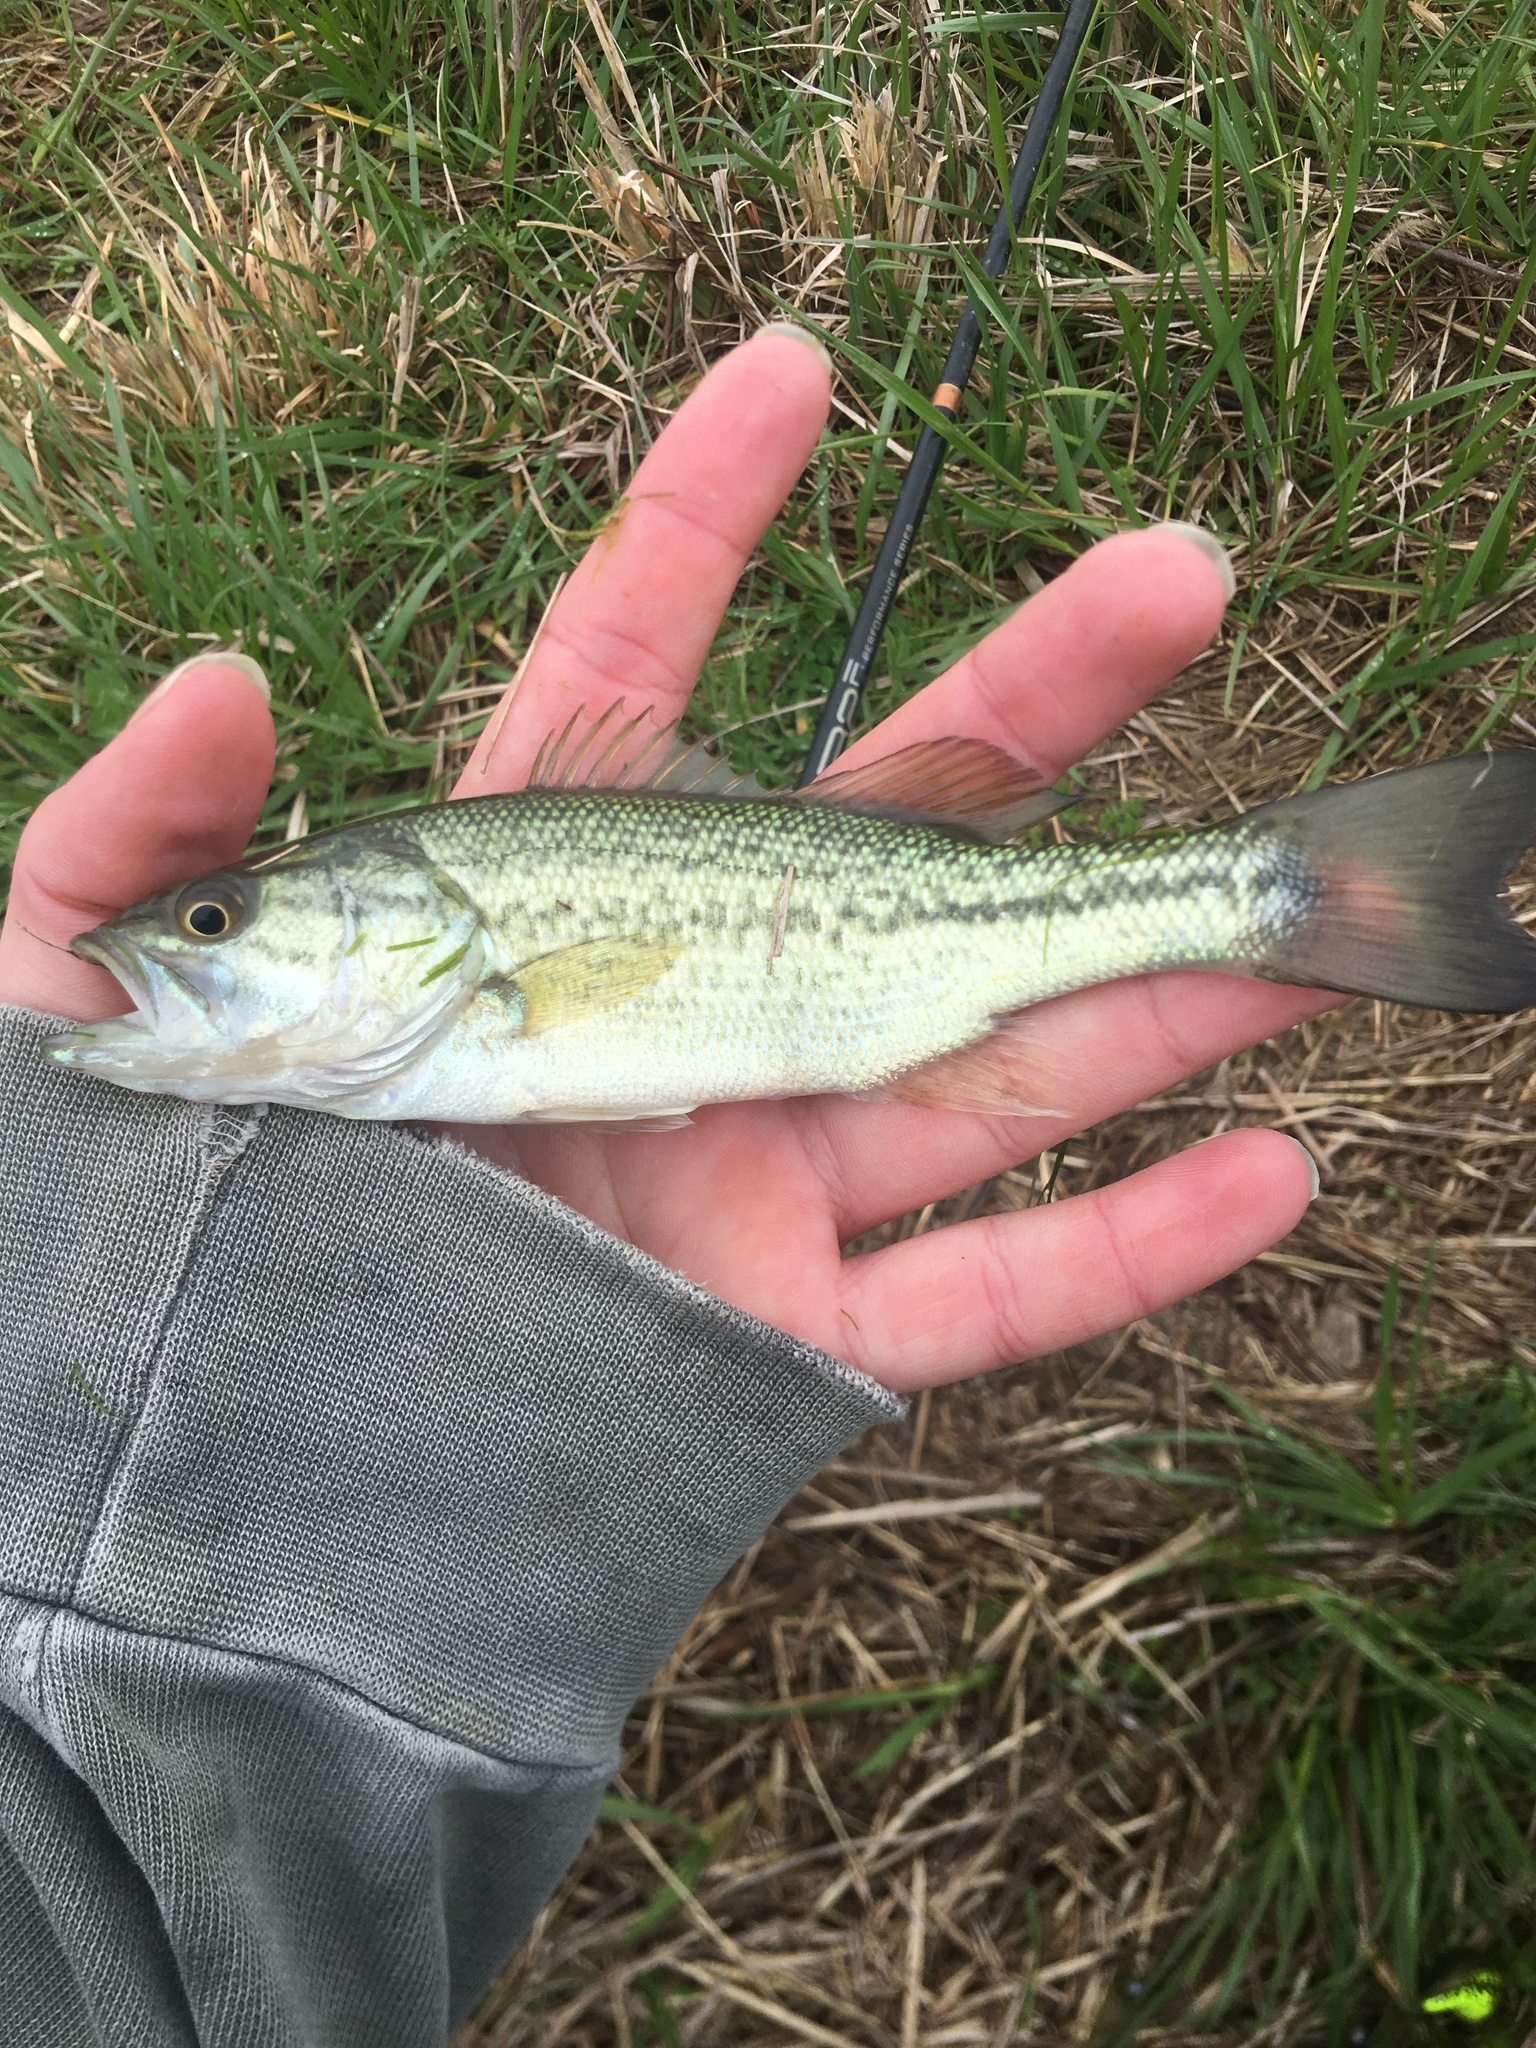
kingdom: Animalia
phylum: Chordata
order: Perciformes
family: Centrarchidae
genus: Micropterus
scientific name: Micropterus
